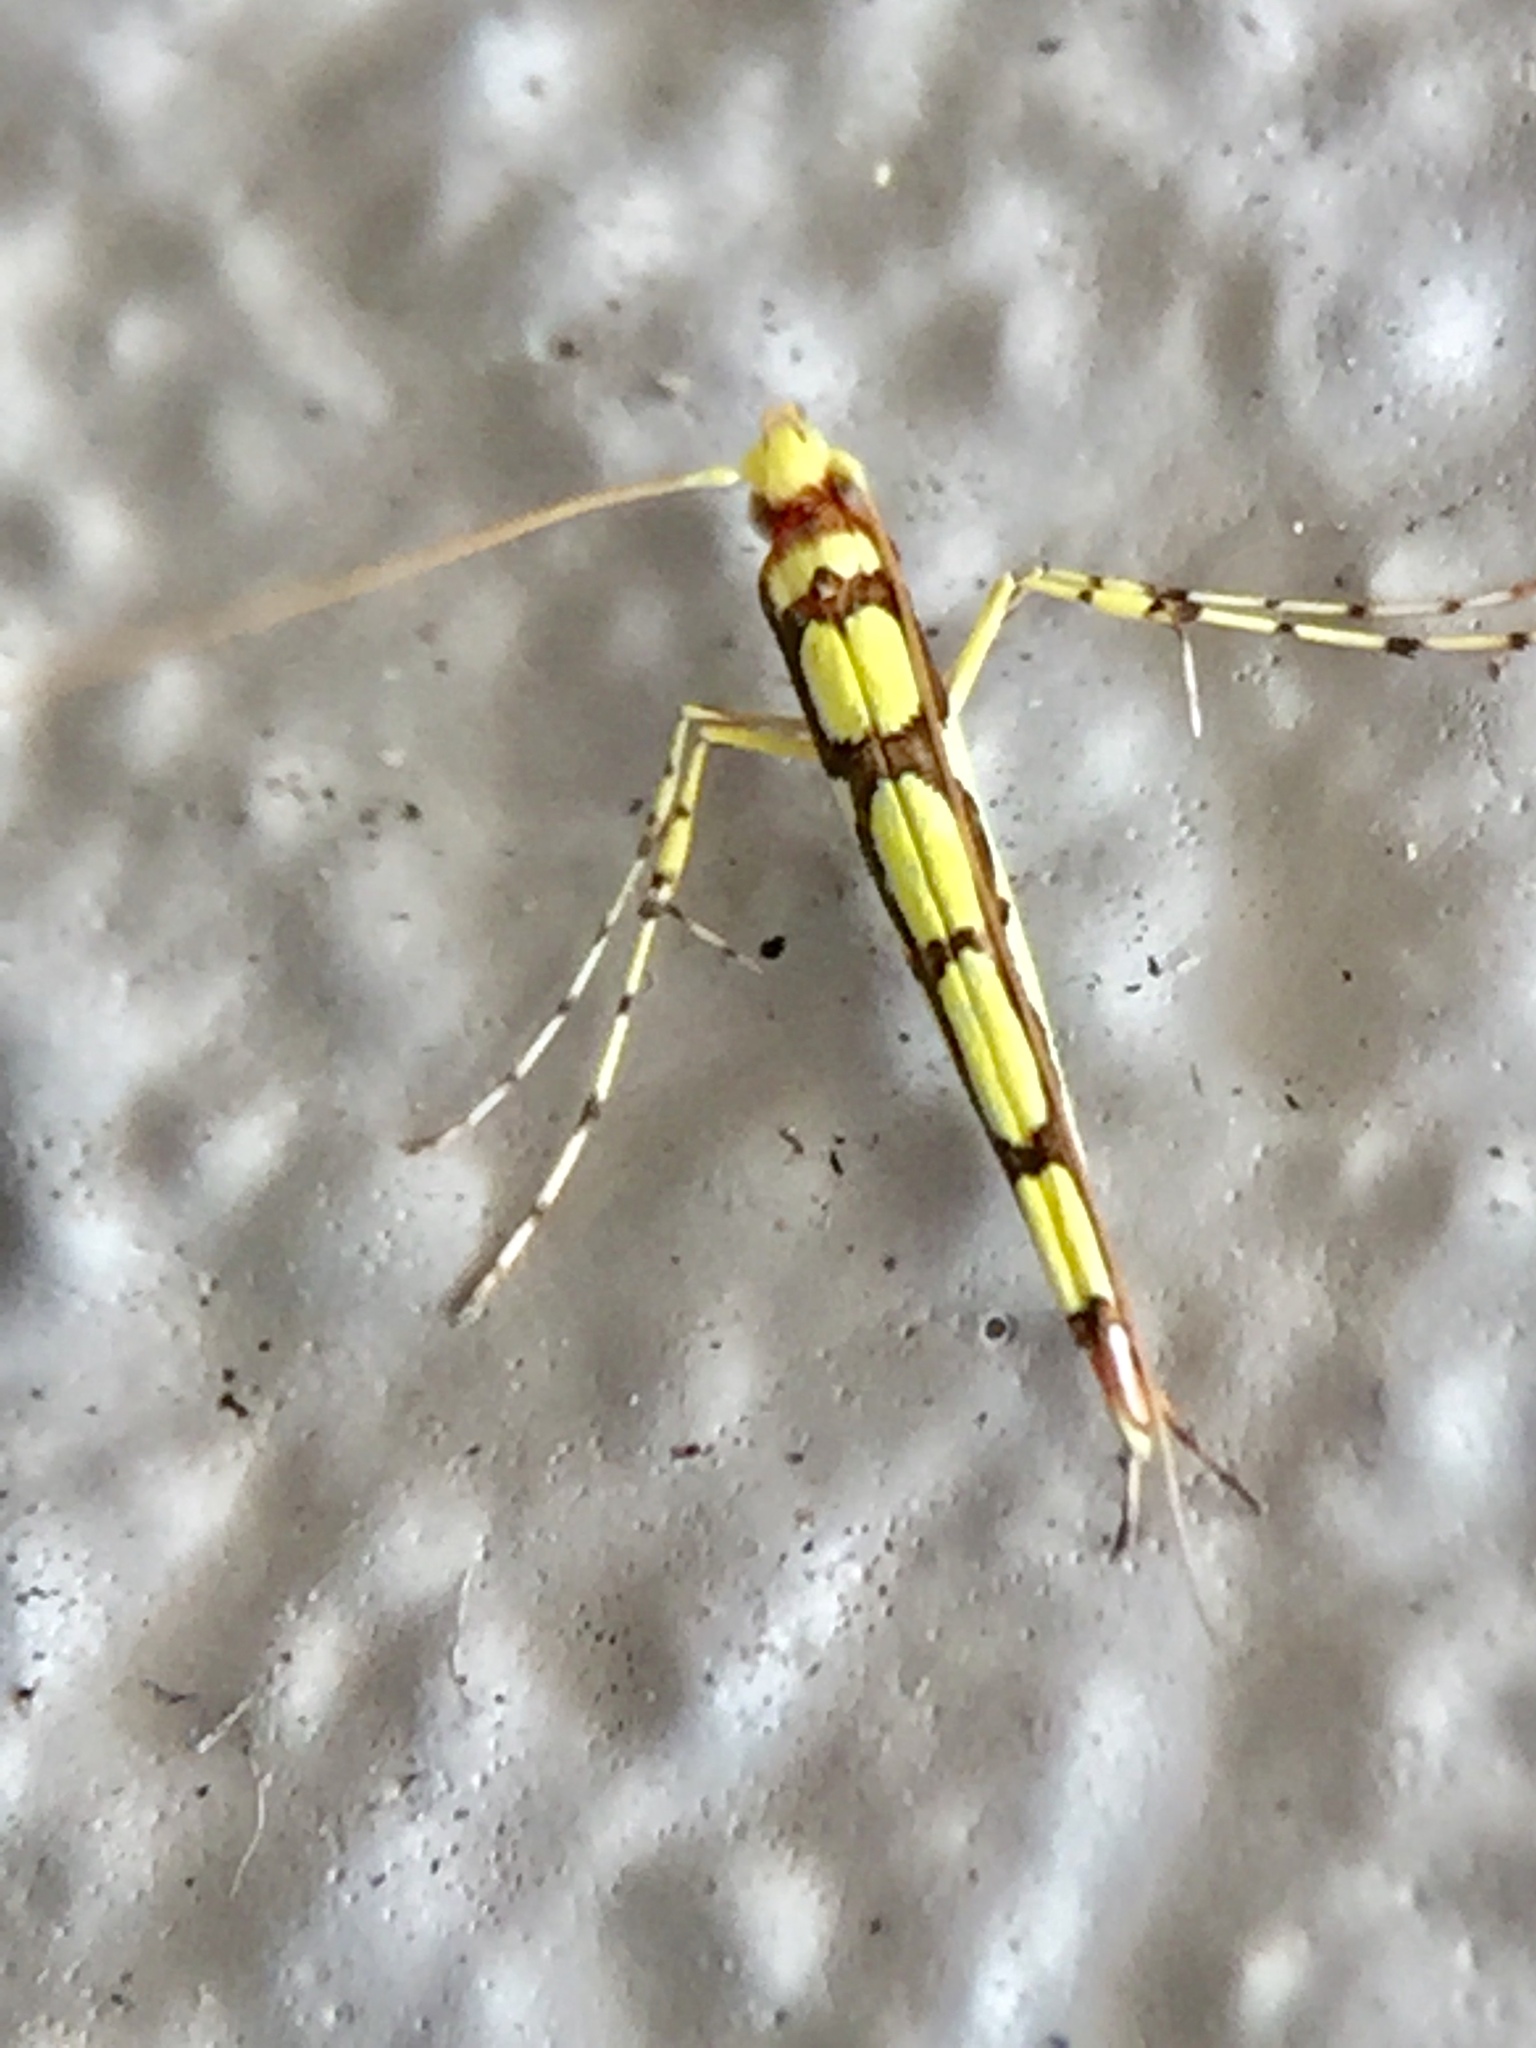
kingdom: Animalia
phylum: Arthropoda
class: Insecta
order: Lepidoptera
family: Gracillariidae
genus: Macarostola
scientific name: Macarostola miniella
